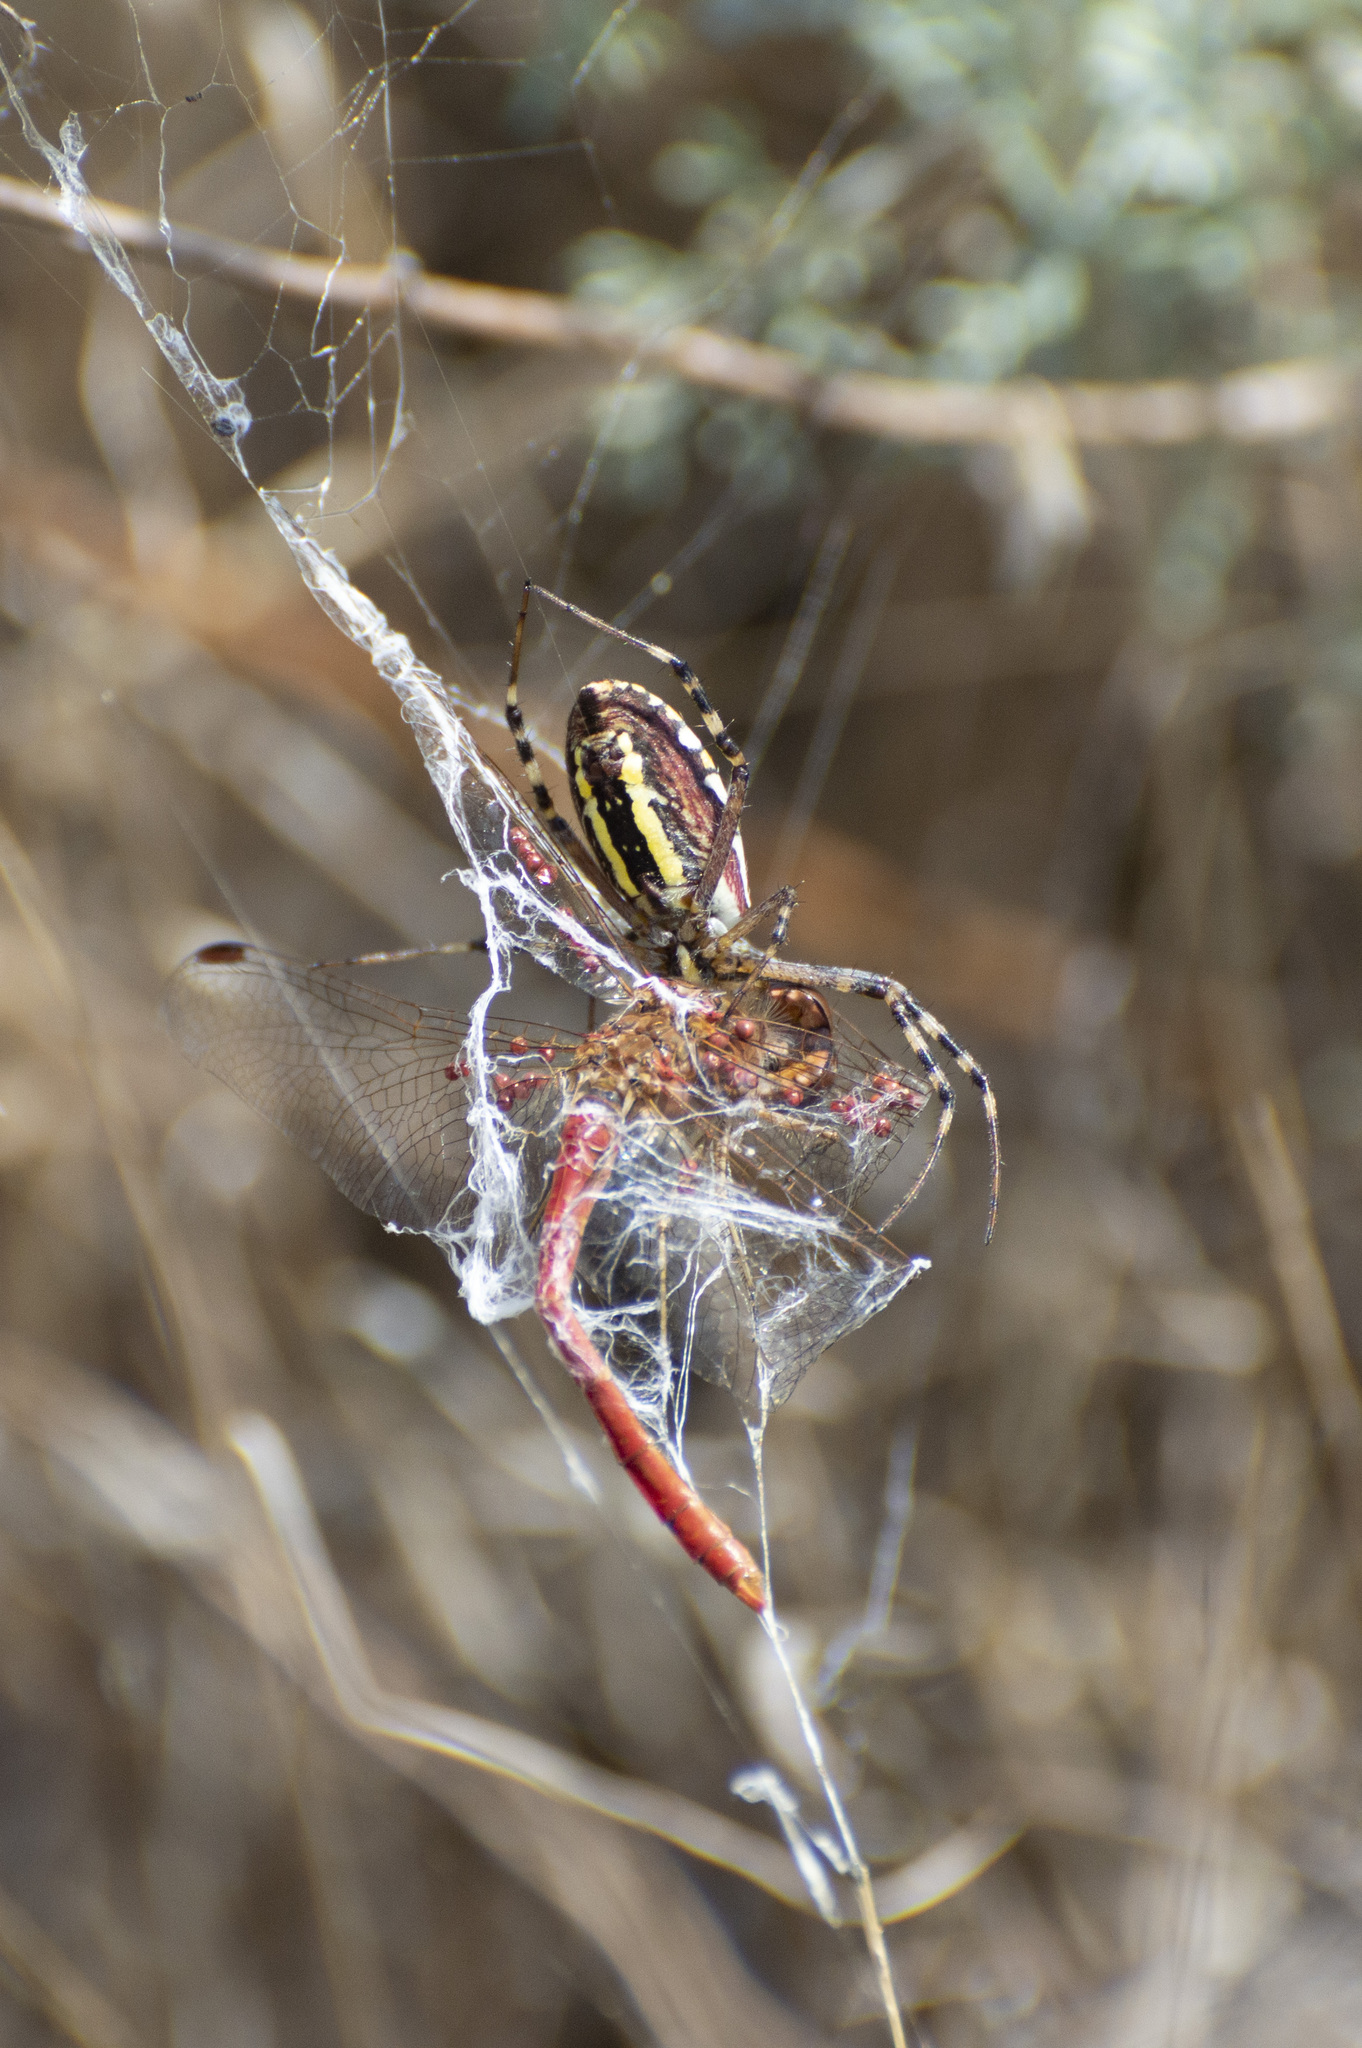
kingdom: Animalia
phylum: Arthropoda
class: Arachnida
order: Araneae
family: Araneidae
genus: Argiope
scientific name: Argiope bruennichi
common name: Wasp spider
